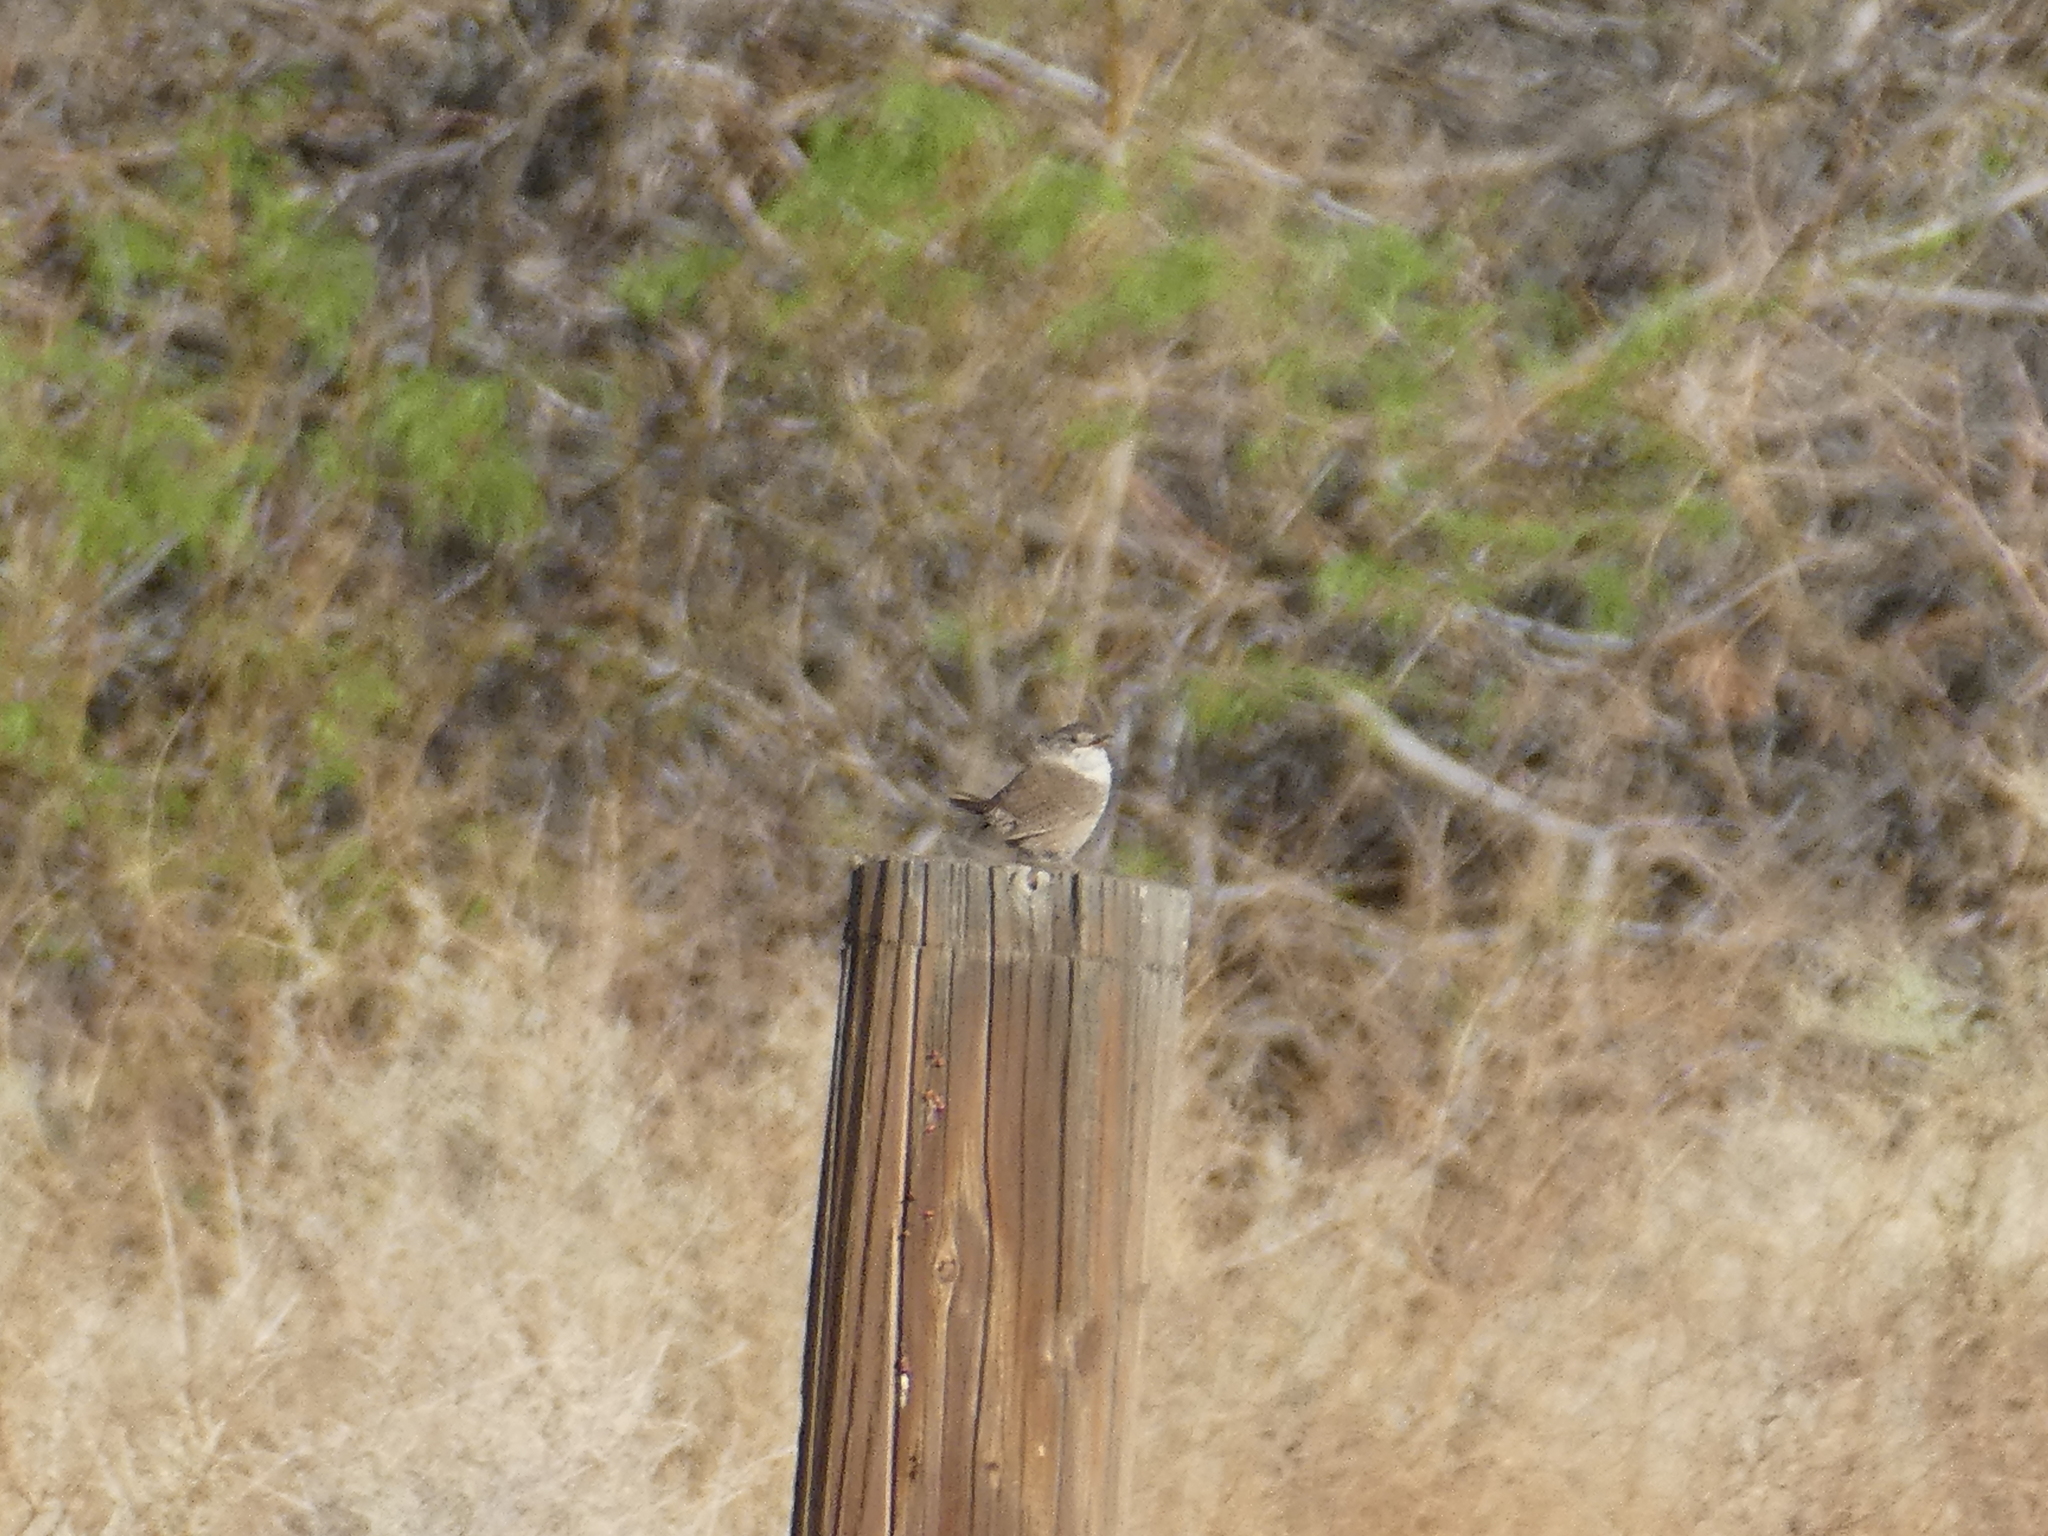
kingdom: Animalia
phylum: Chordata
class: Aves
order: Passeriformes
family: Troglodytidae
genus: Troglodytes
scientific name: Troglodytes aedon
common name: House wren
